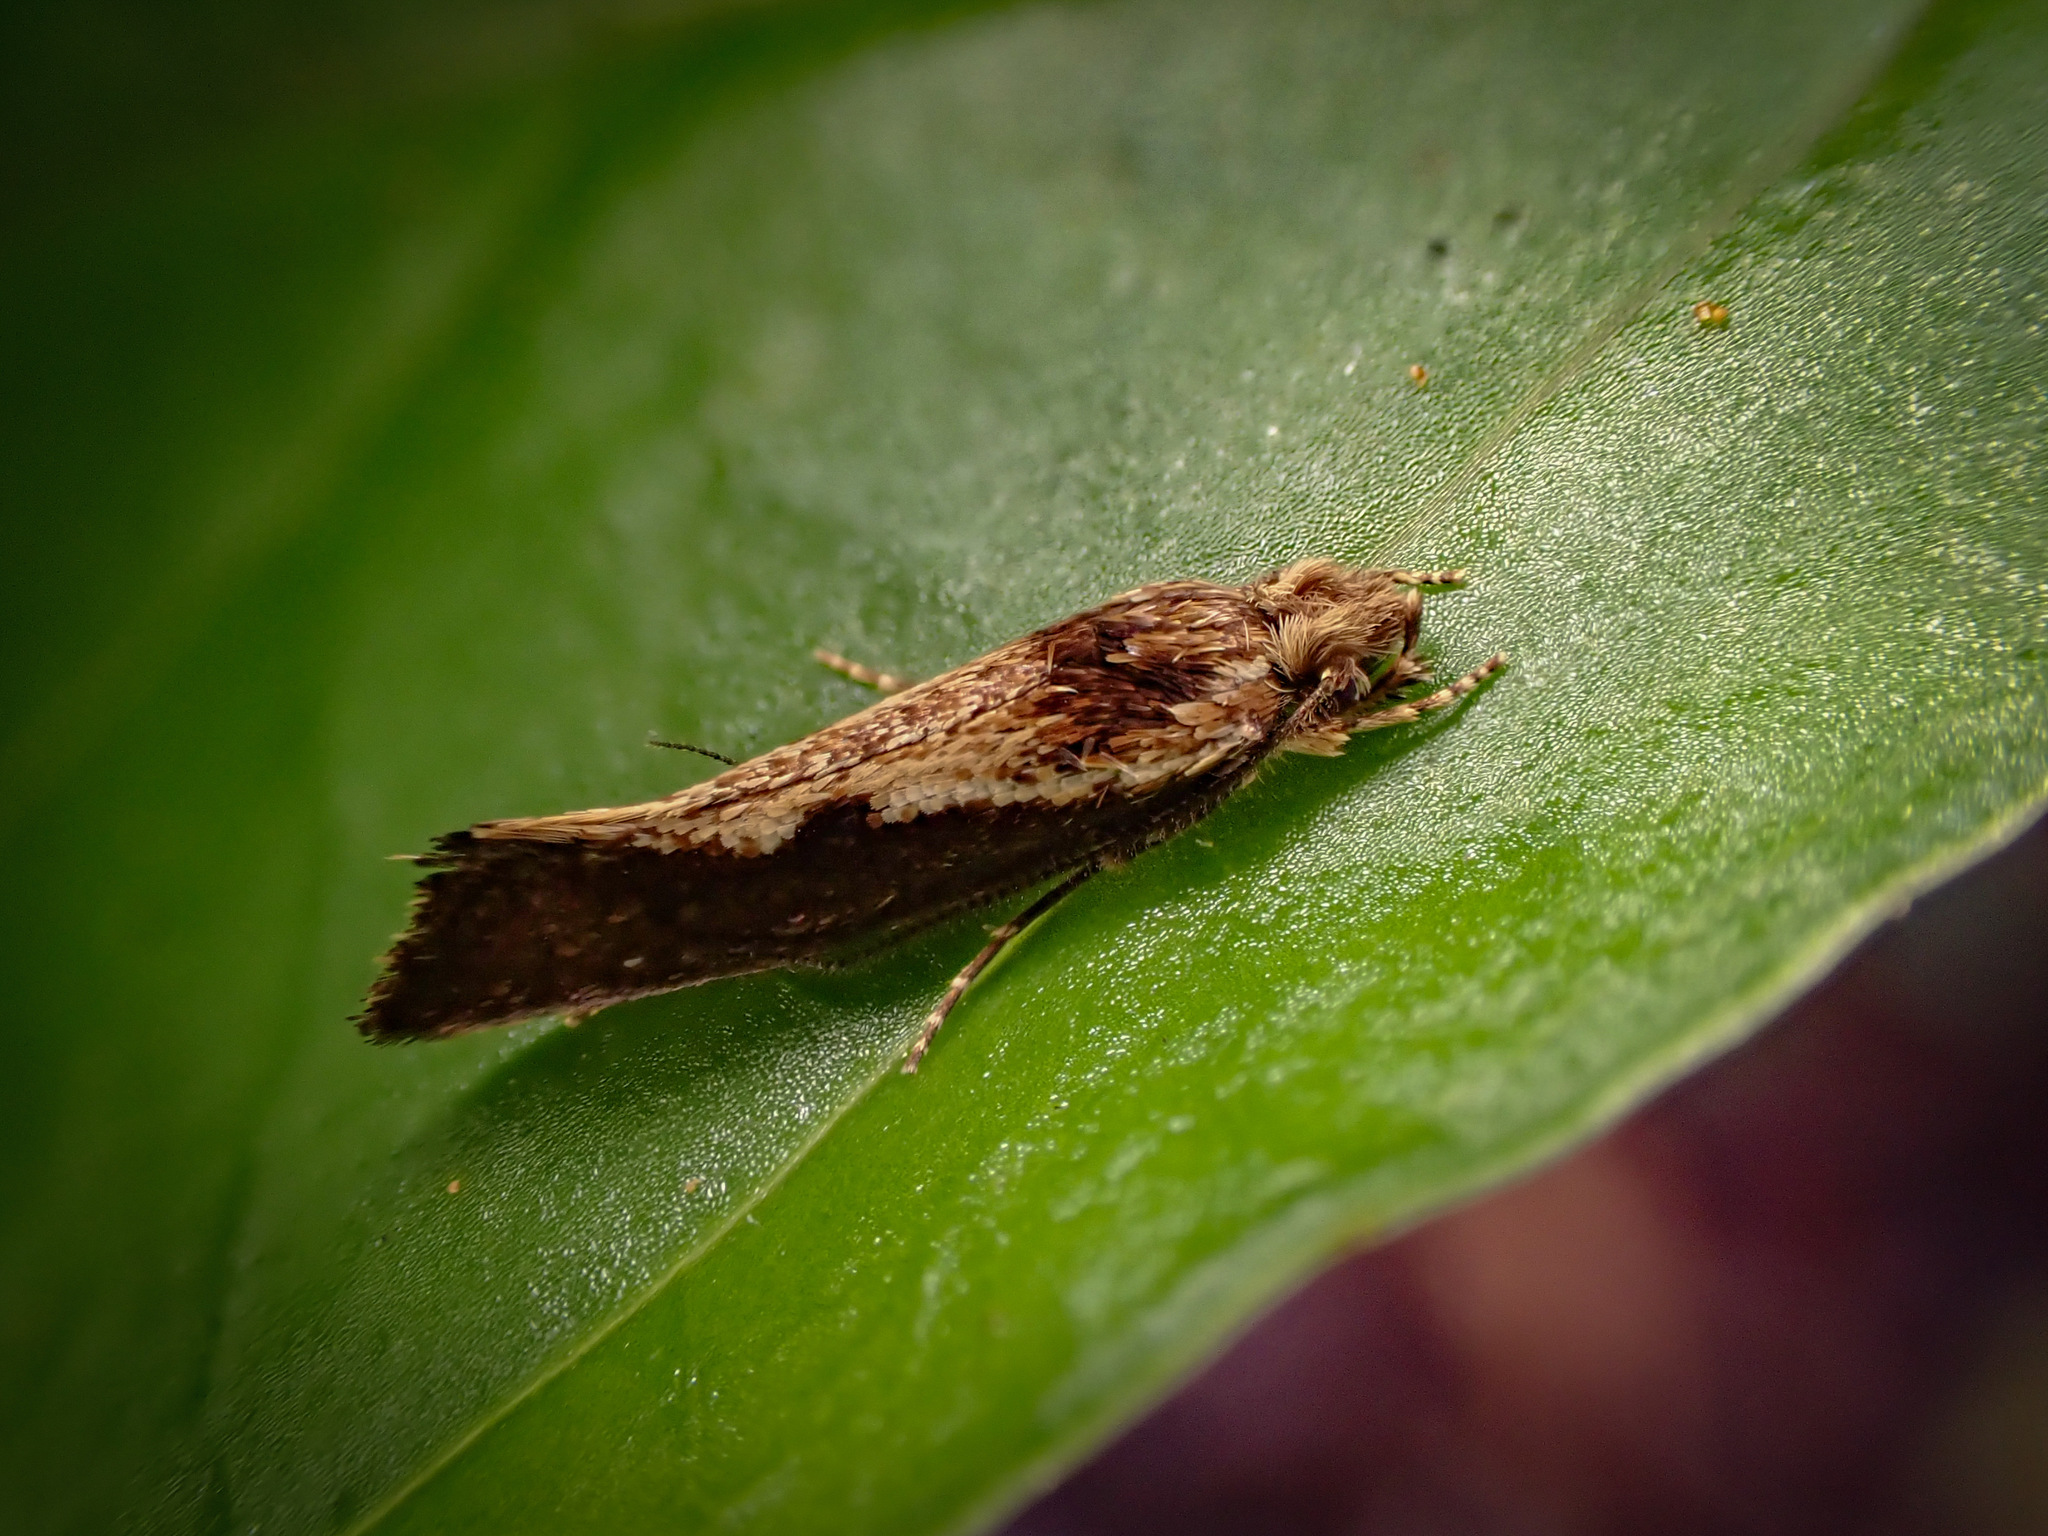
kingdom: Animalia
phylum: Arthropoda
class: Insecta
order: Lepidoptera
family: Tineidae
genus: Tinea
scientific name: Tinea belonota
